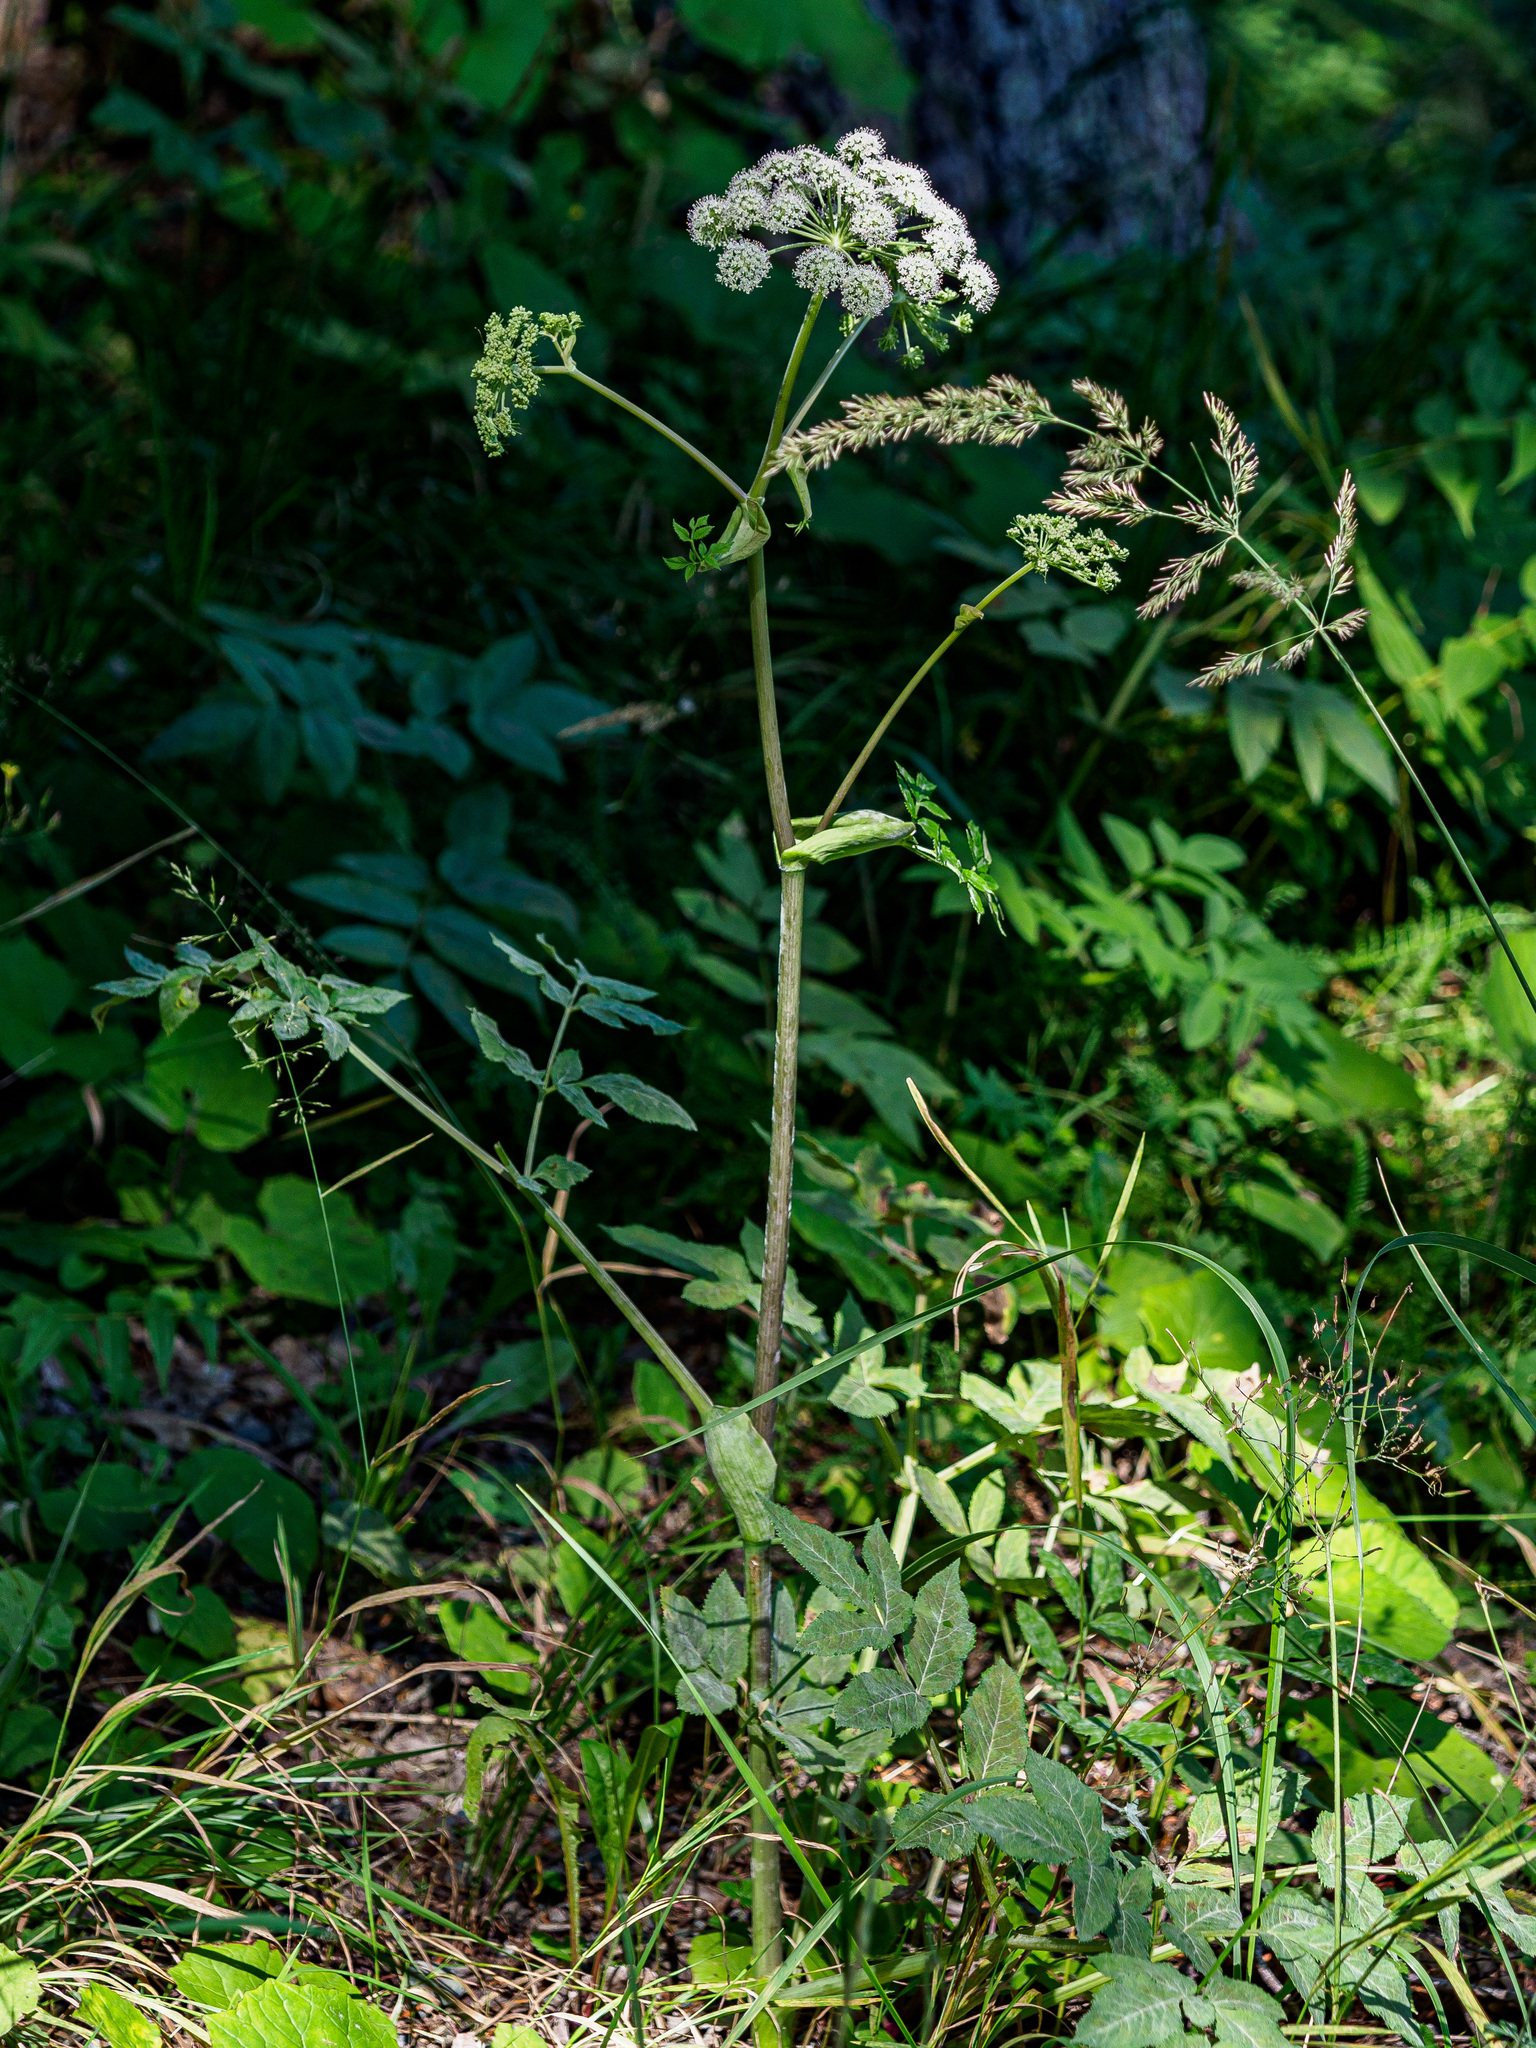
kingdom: Fungi
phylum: Ascomycota
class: Leotiomycetes
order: Helotiales
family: Erysiphaceae
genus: Erysiphe
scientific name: Erysiphe heraclei
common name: Umbellifer mildew
